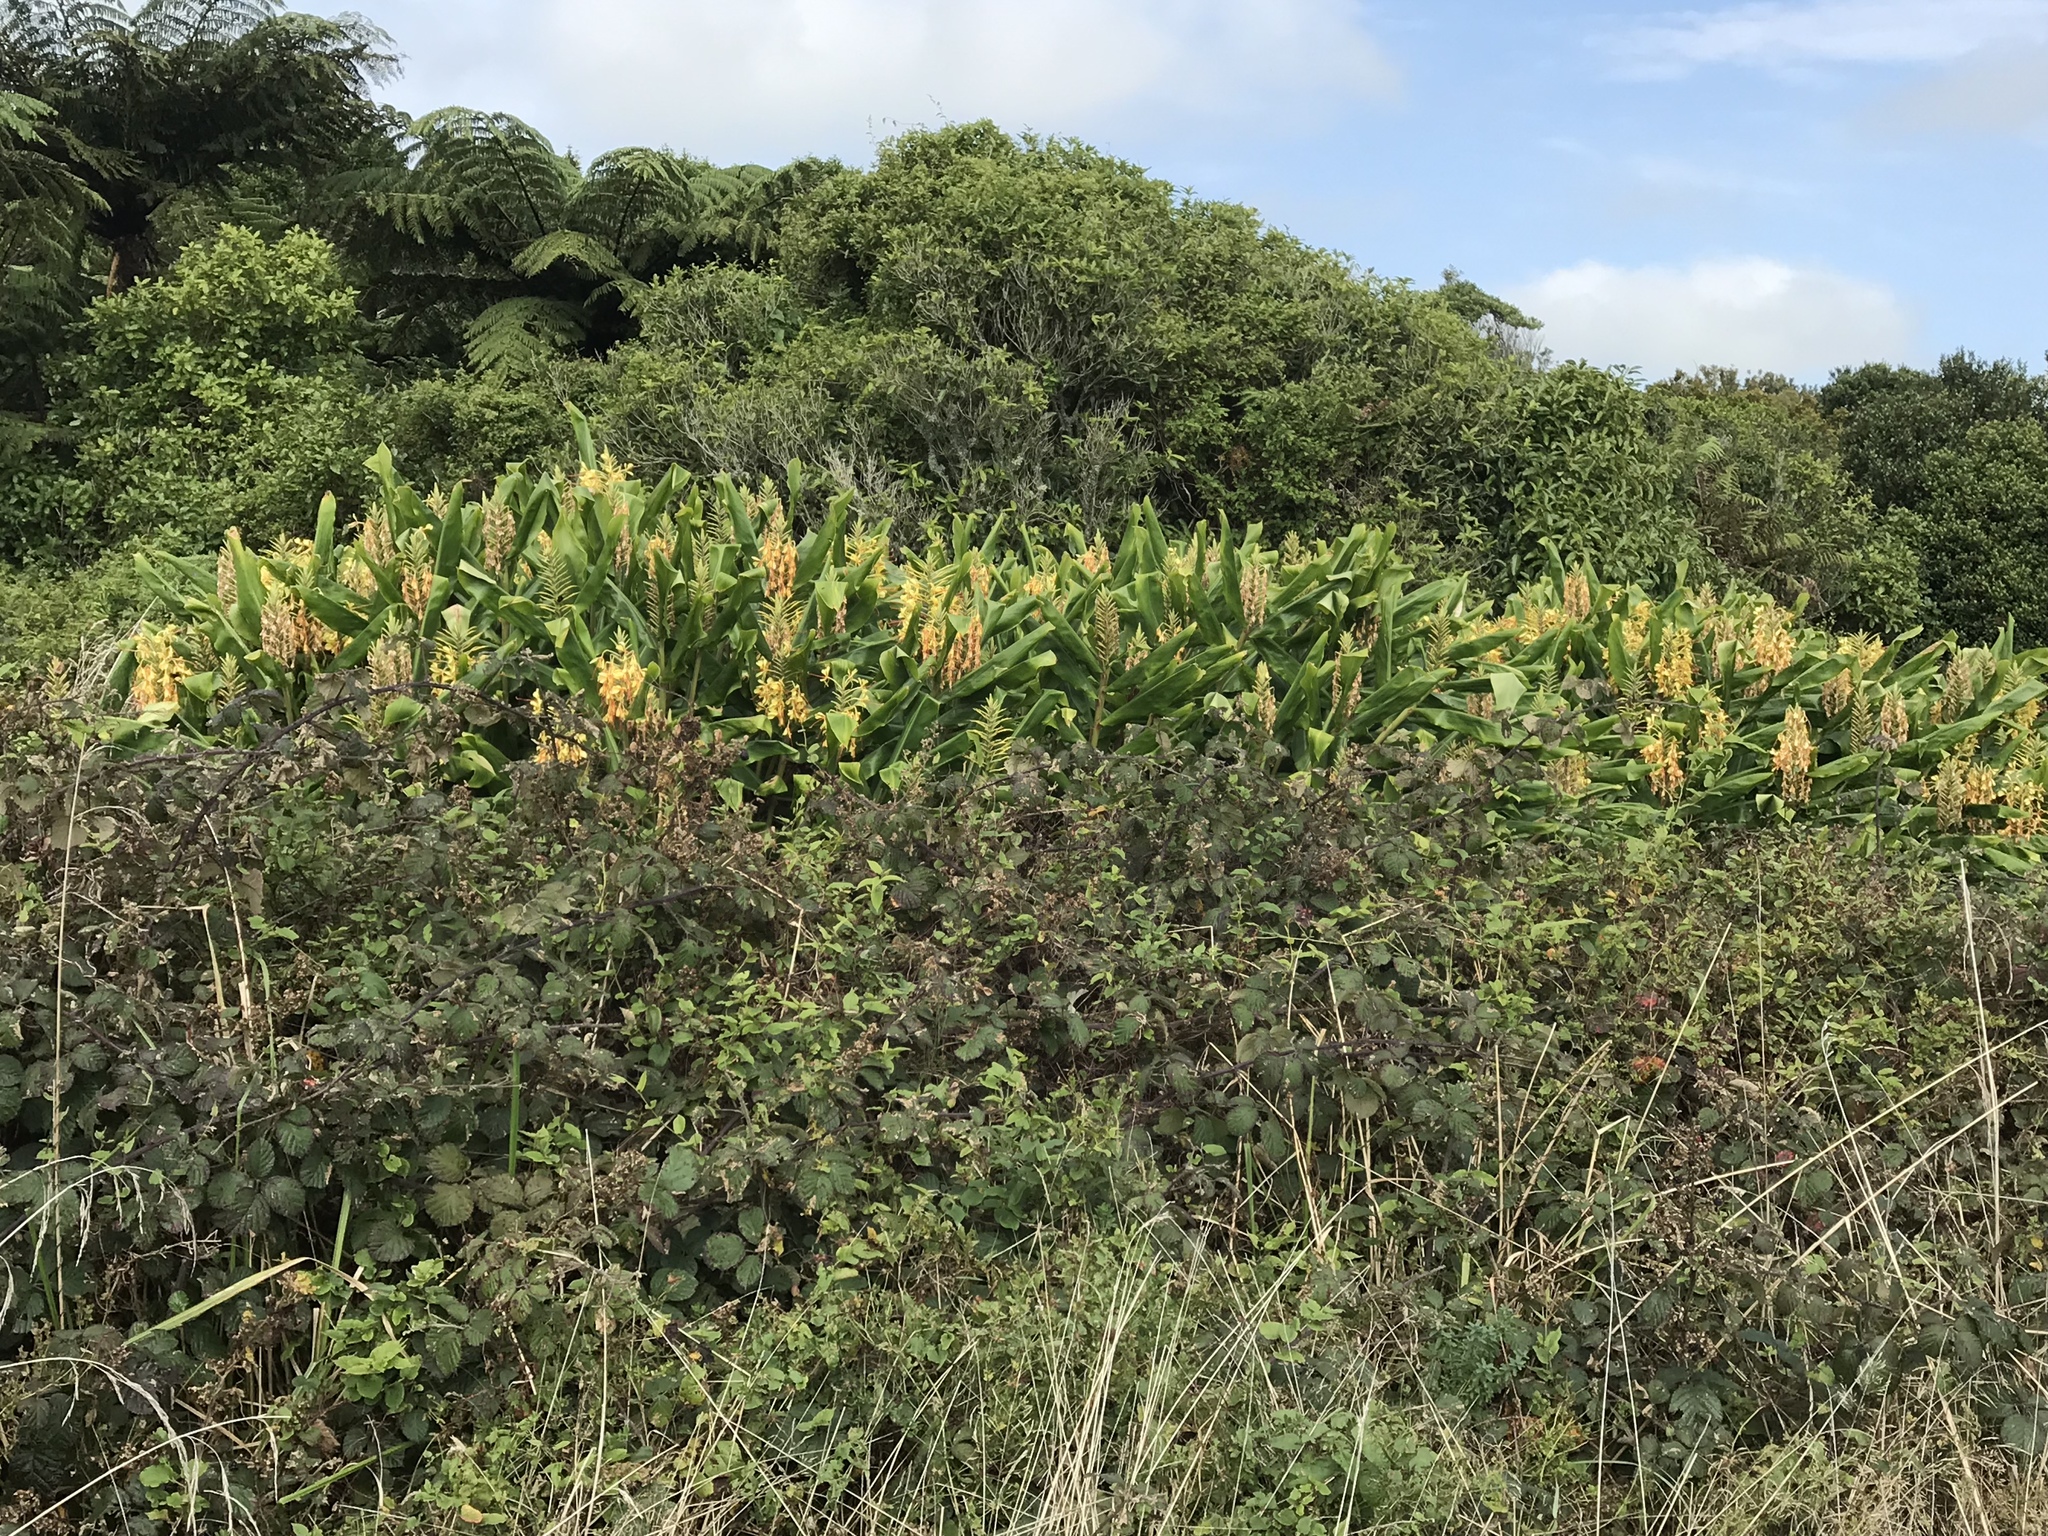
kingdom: Plantae
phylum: Tracheophyta
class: Liliopsida
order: Zingiberales
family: Zingiberaceae
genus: Hedychium
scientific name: Hedychium gardnerianum
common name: Himalayan ginger
